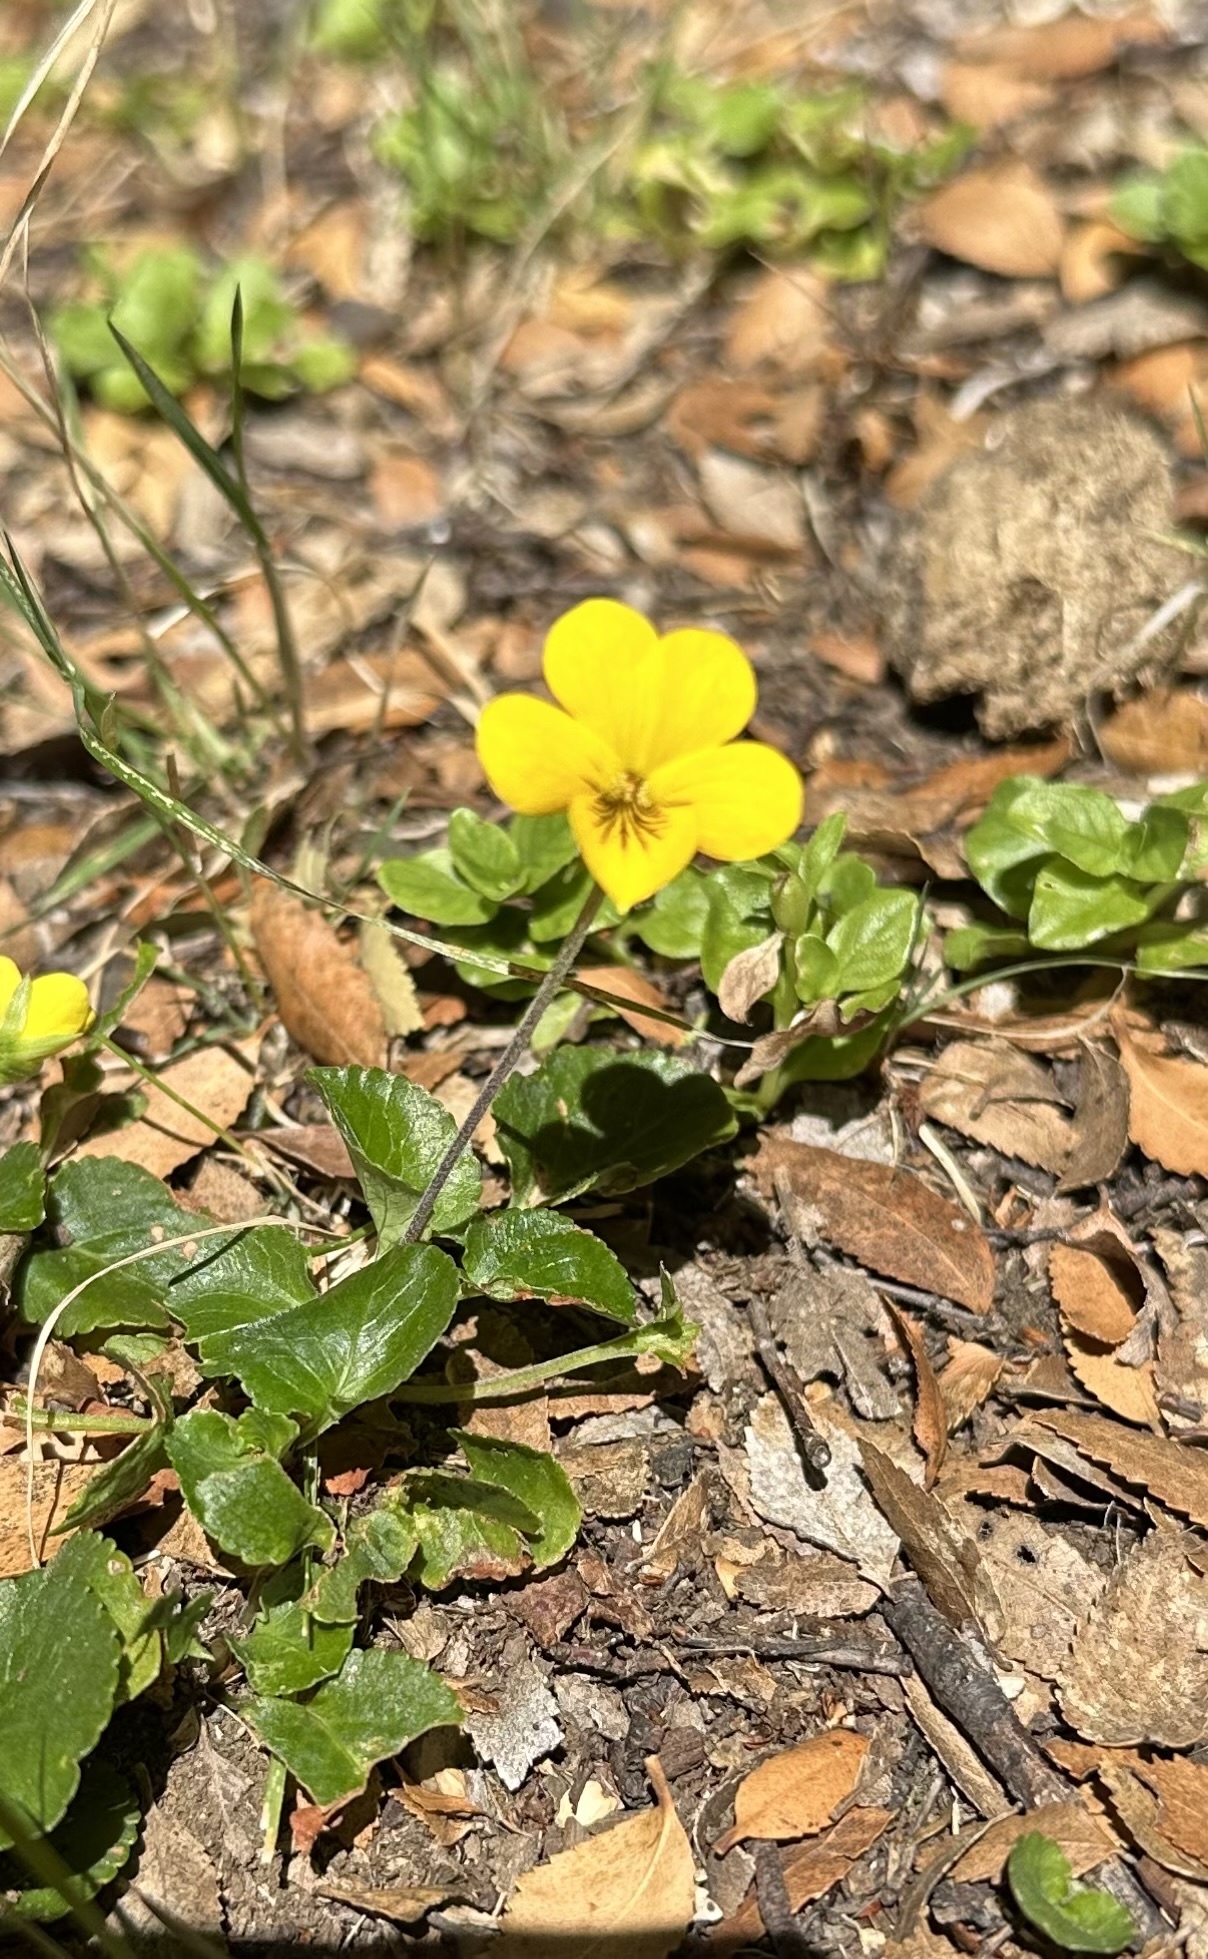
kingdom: Plantae
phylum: Tracheophyta
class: Magnoliopsida
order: Malpighiales
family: Violaceae
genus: Viola
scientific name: Viola reichei
